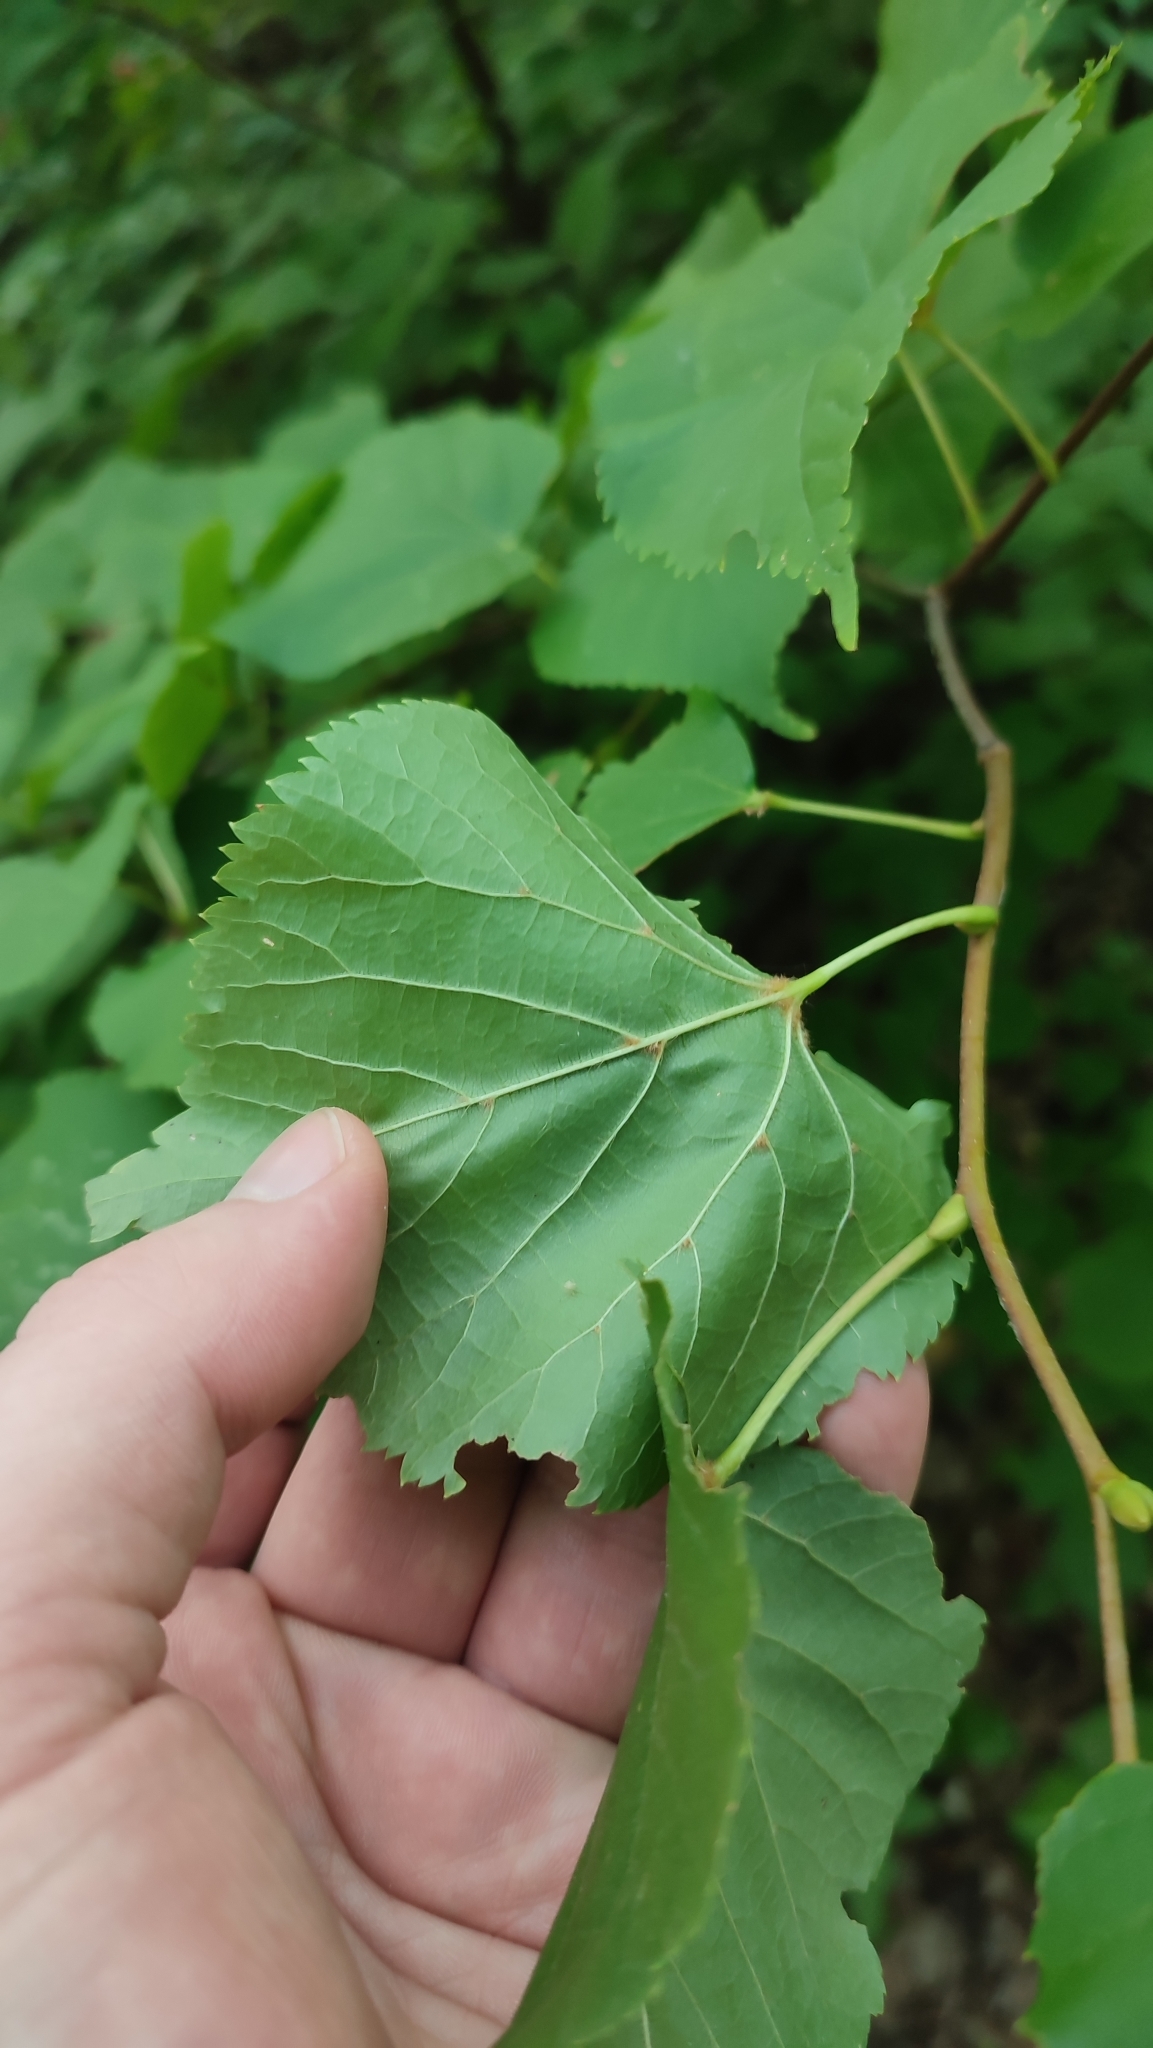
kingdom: Plantae
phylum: Tracheophyta
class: Magnoliopsida
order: Malvales
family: Malvaceae
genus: Tilia
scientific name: Tilia cordata
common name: Small-leaved lime
